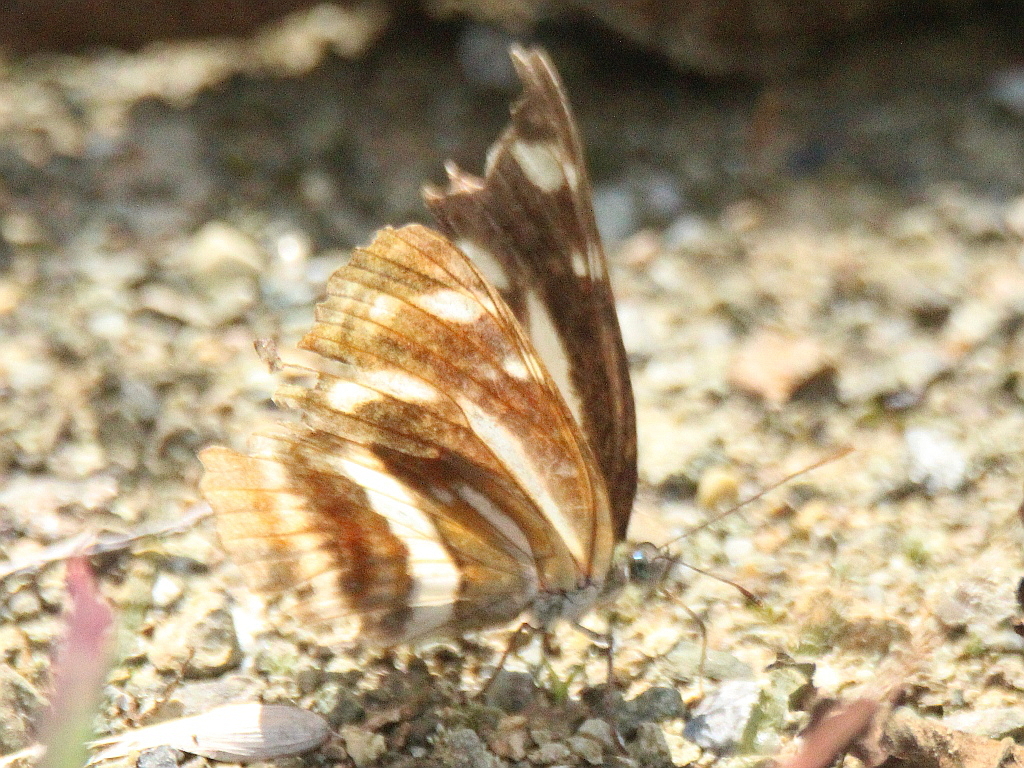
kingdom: Animalia
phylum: Arthropoda
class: Insecta
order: Lepidoptera
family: Nymphalidae
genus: Neptis
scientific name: Neptis philyroides
